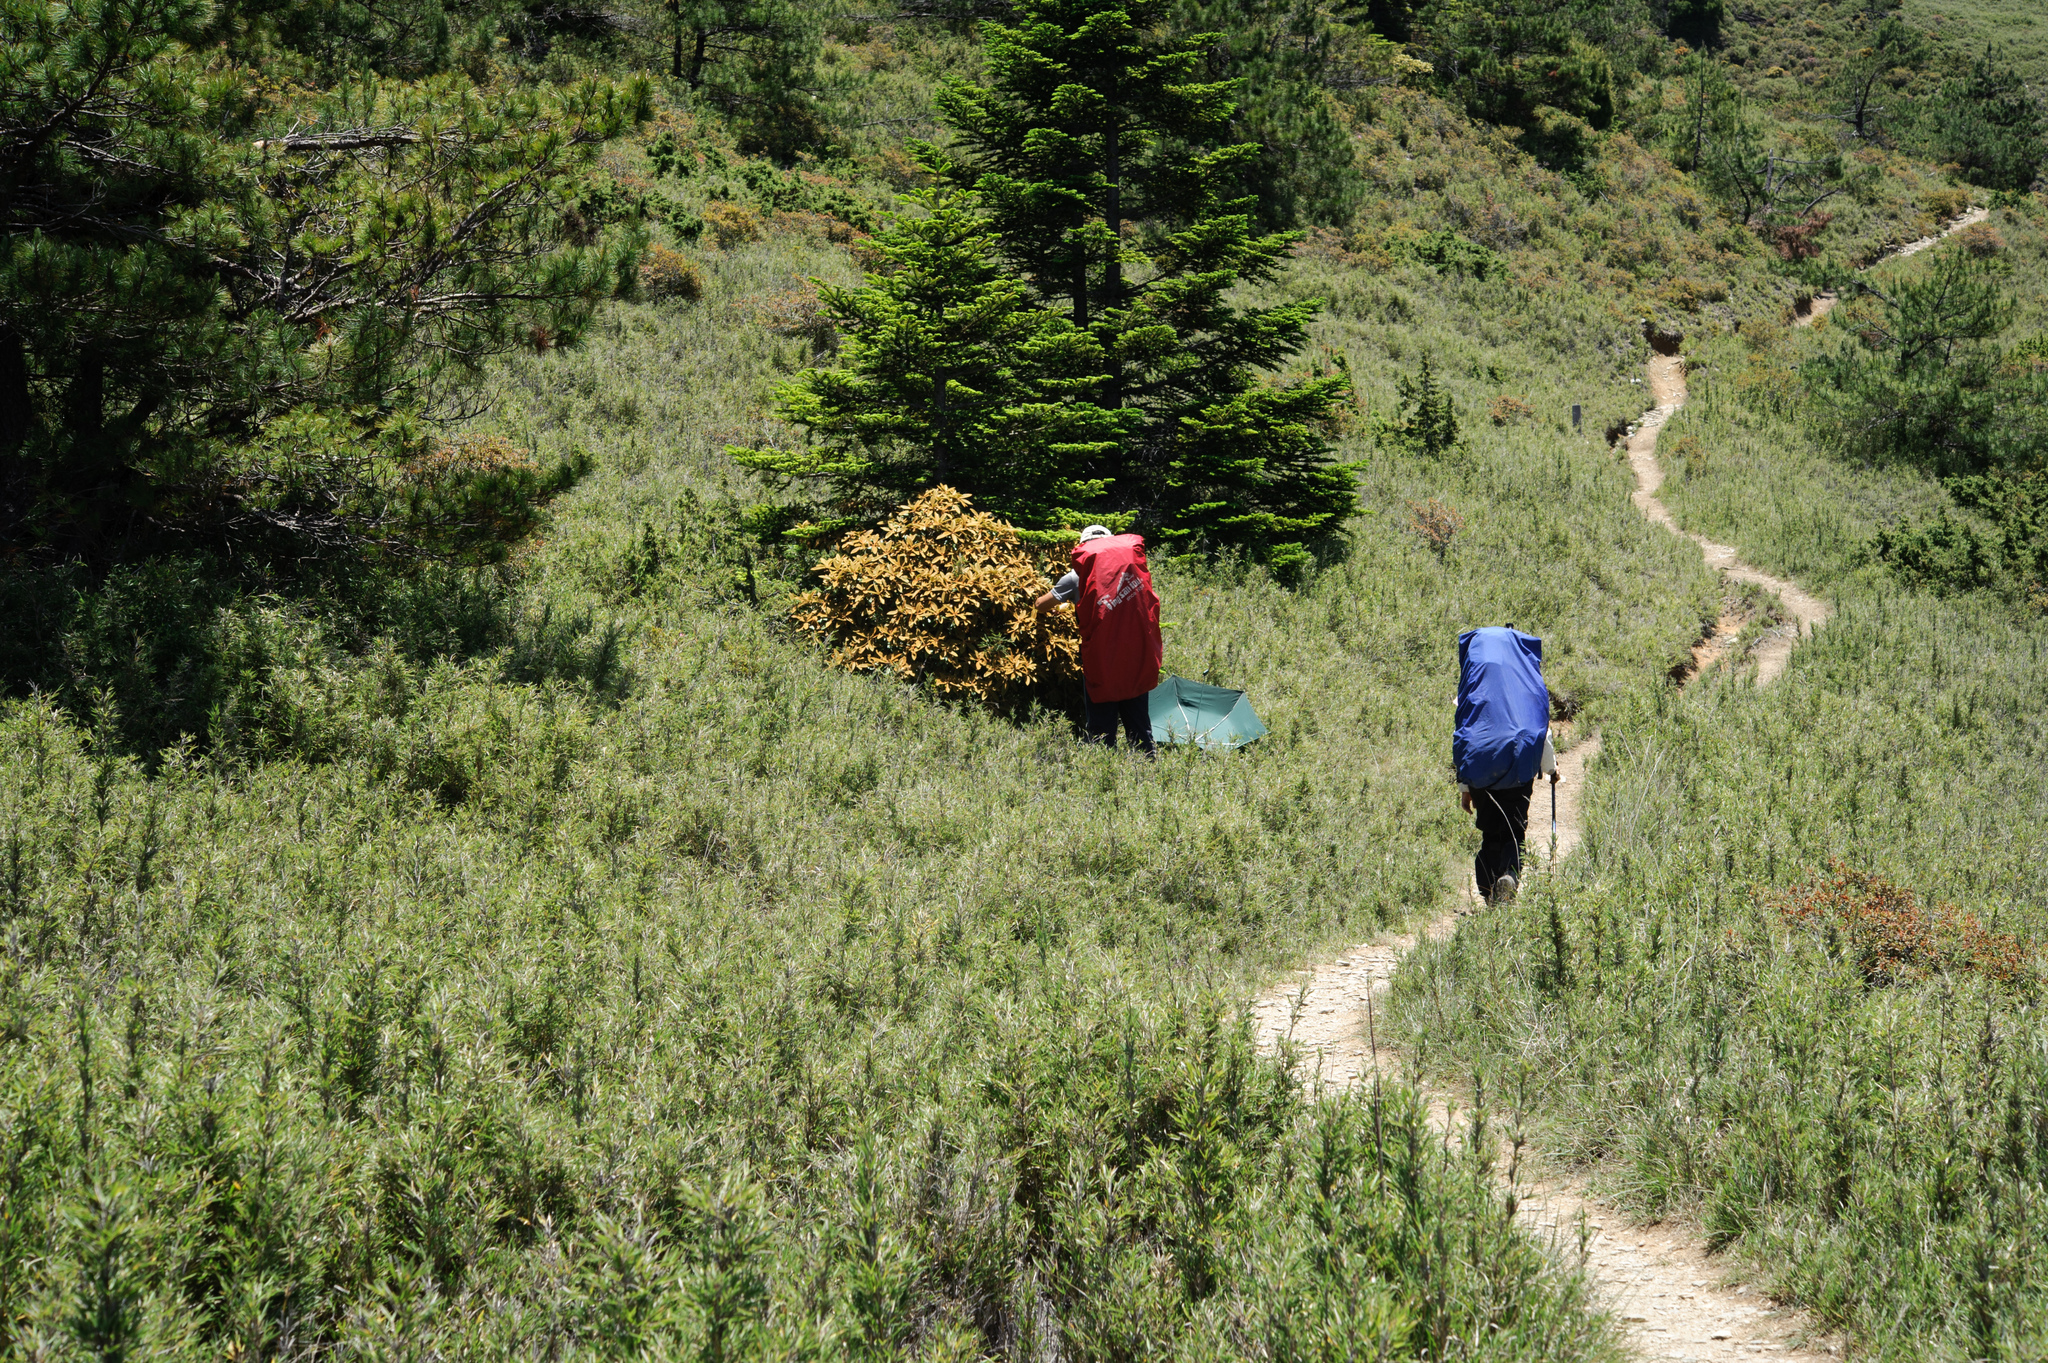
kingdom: Plantae
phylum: Tracheophyta
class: Magnoliopsida
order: Ericales
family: Ericaceae
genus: Rhododendron
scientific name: Rhododendron hyperythrum
